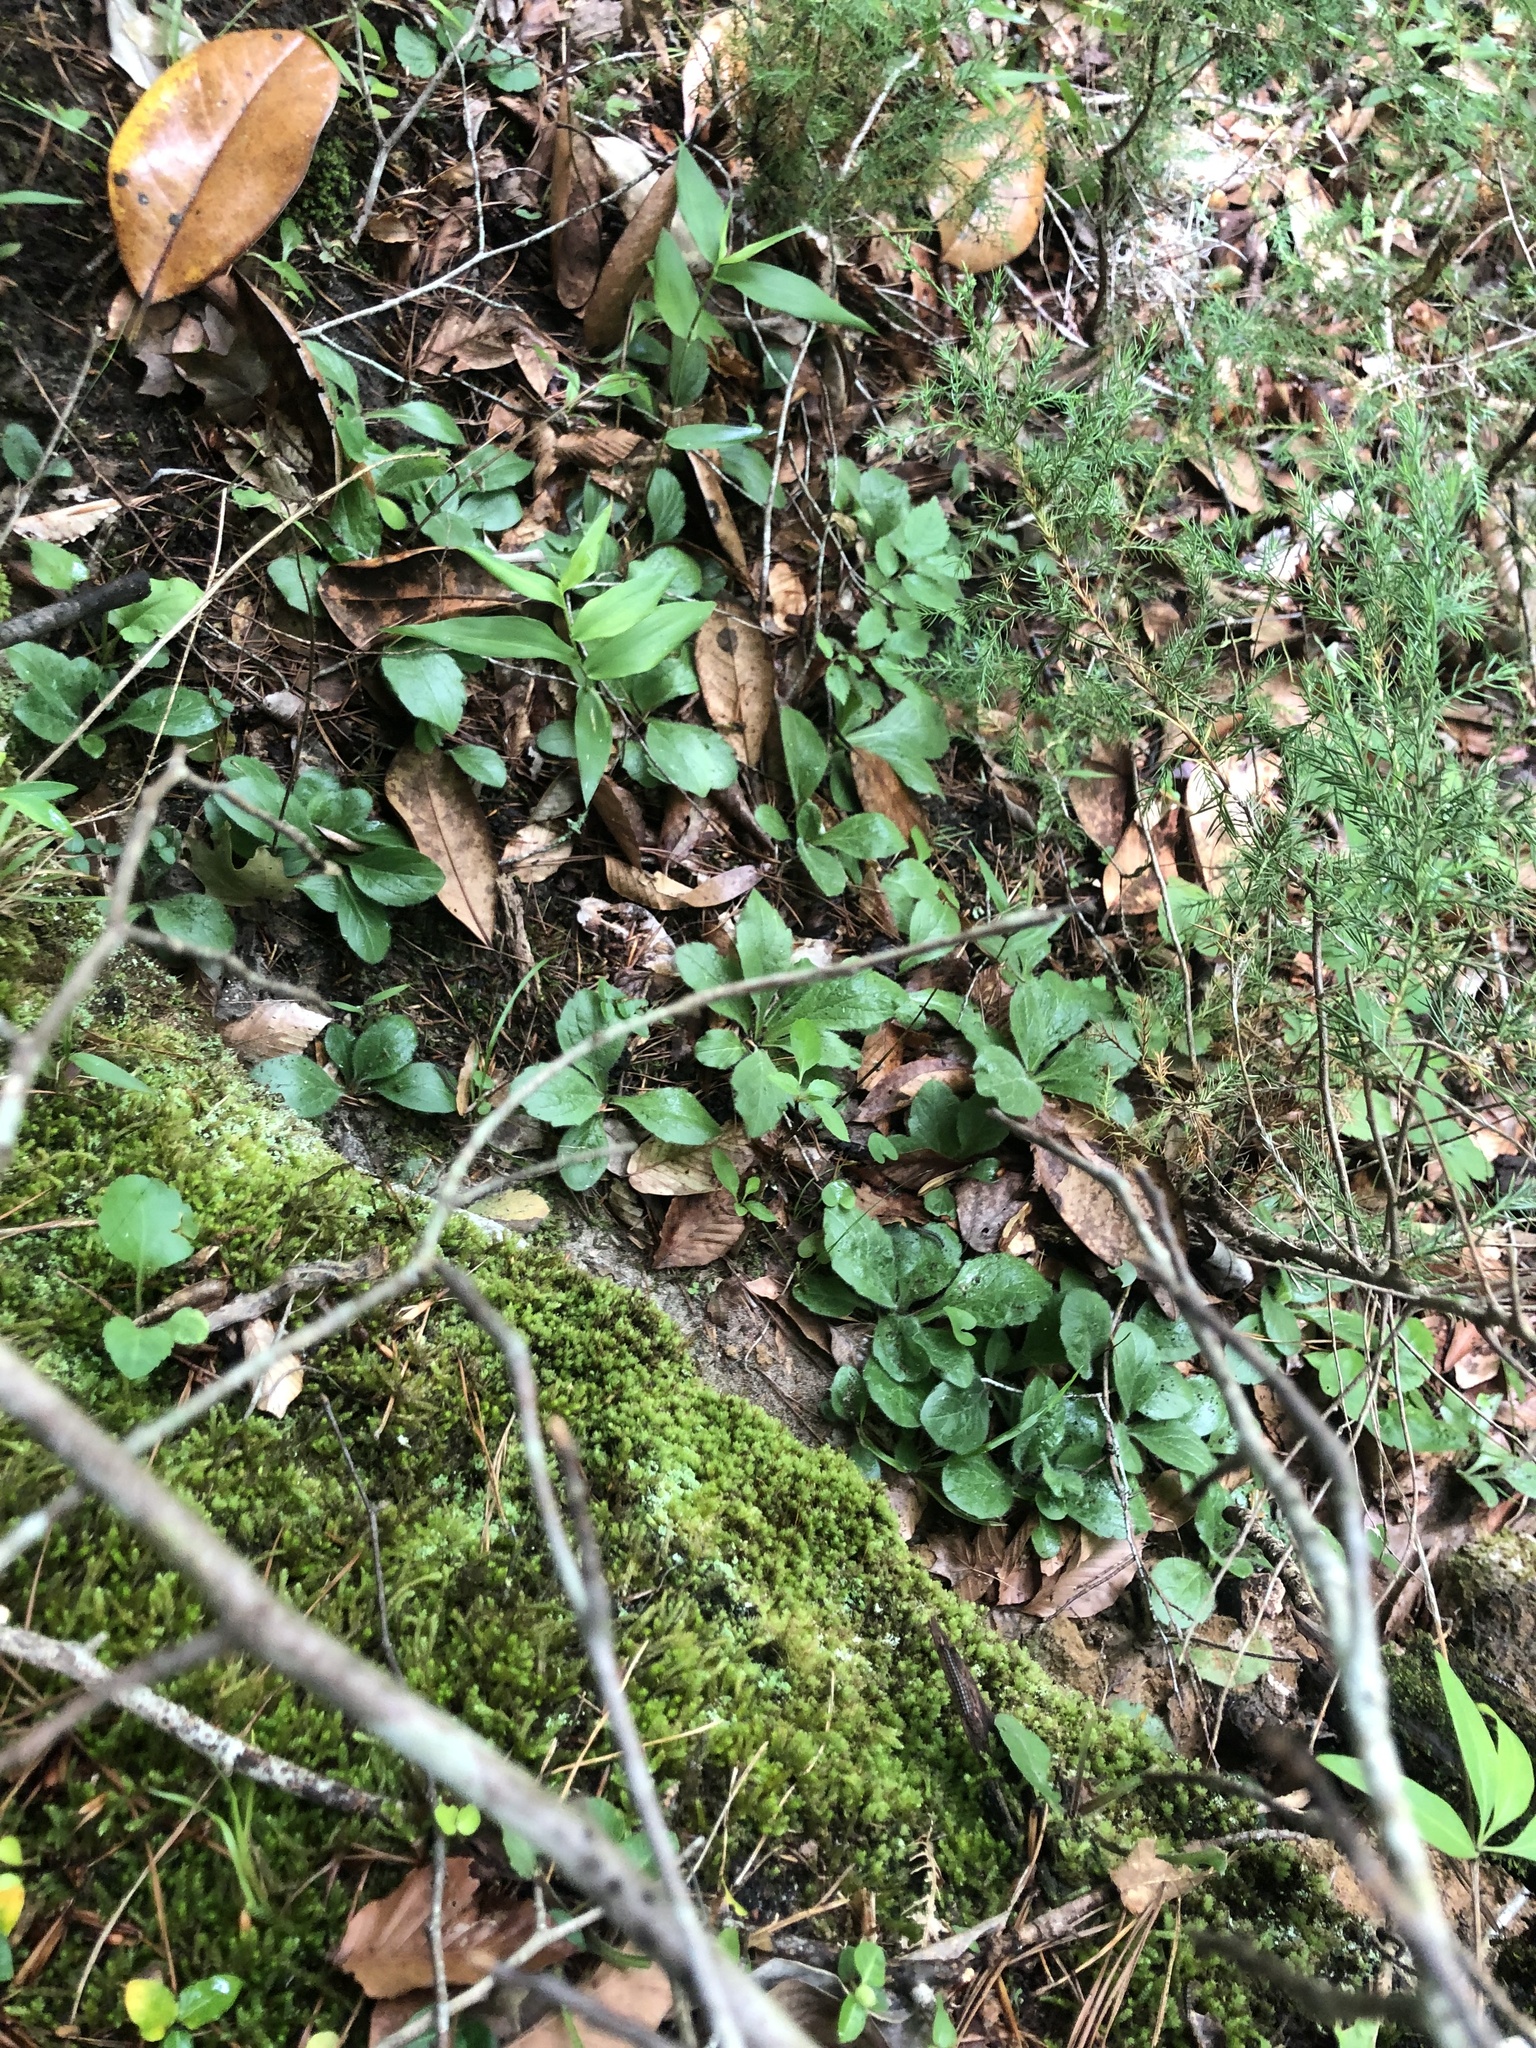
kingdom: Plantae
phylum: Tracheophyta
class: Magnoliopsida
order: Asterales
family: Asteraceae
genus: Erigeron
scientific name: Erigeron pulchellus
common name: Hairy fleabane
